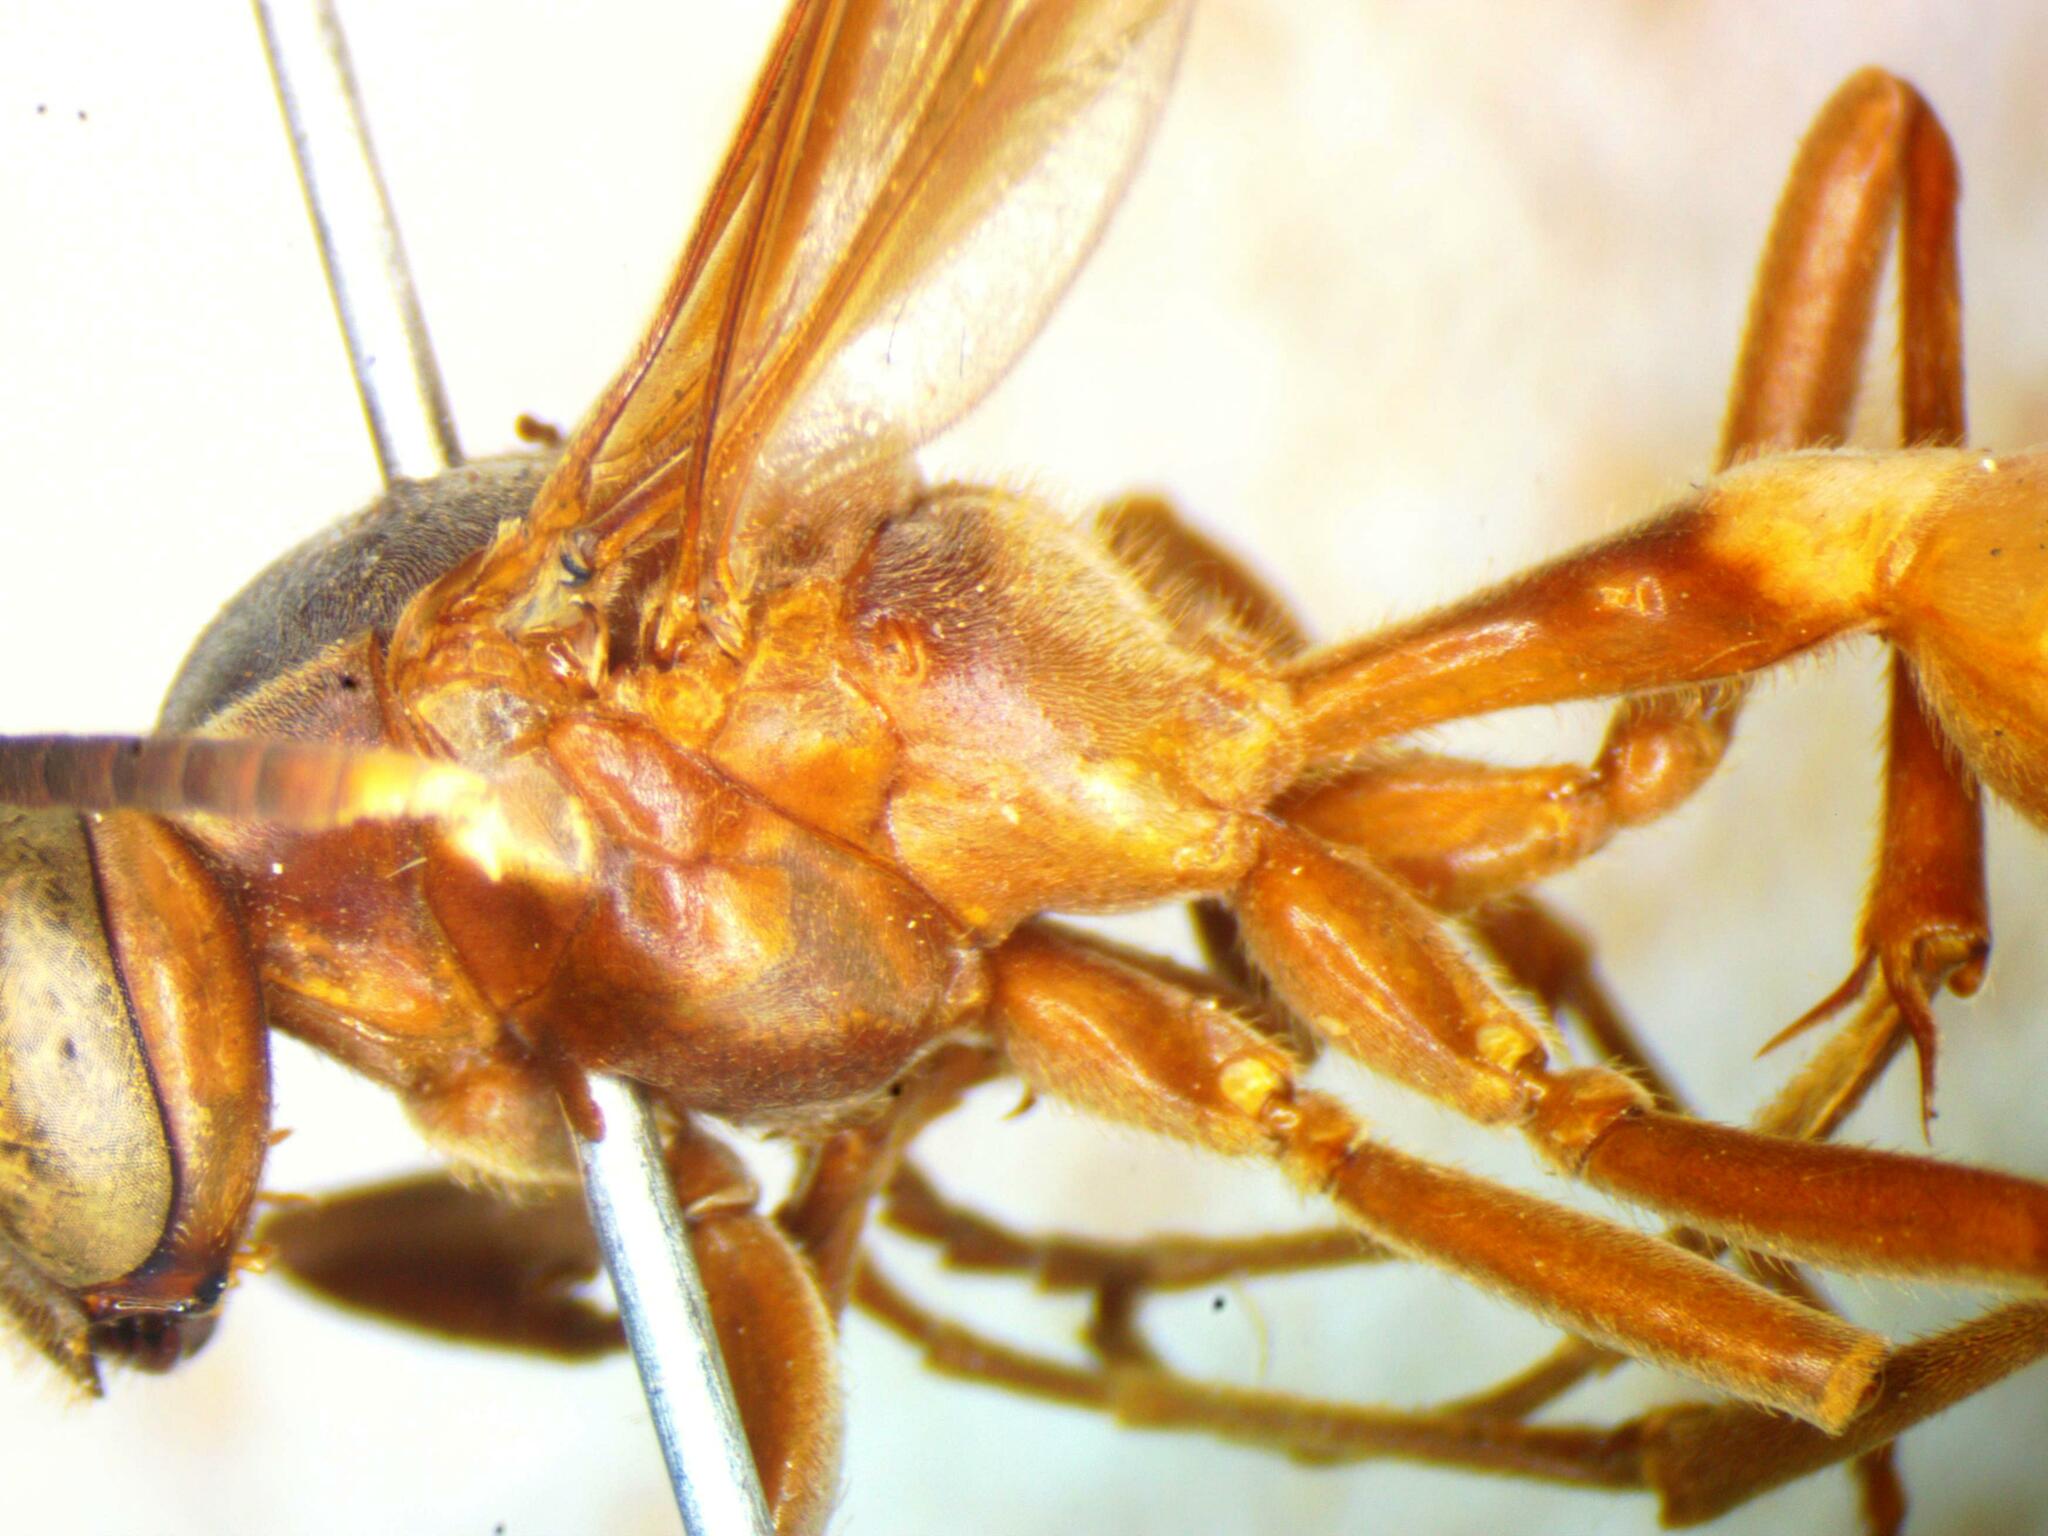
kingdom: Animalia
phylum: Arthropoda
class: Insecta
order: Hymenoptera
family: Vespidae
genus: Apoica
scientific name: Apoica pallens
